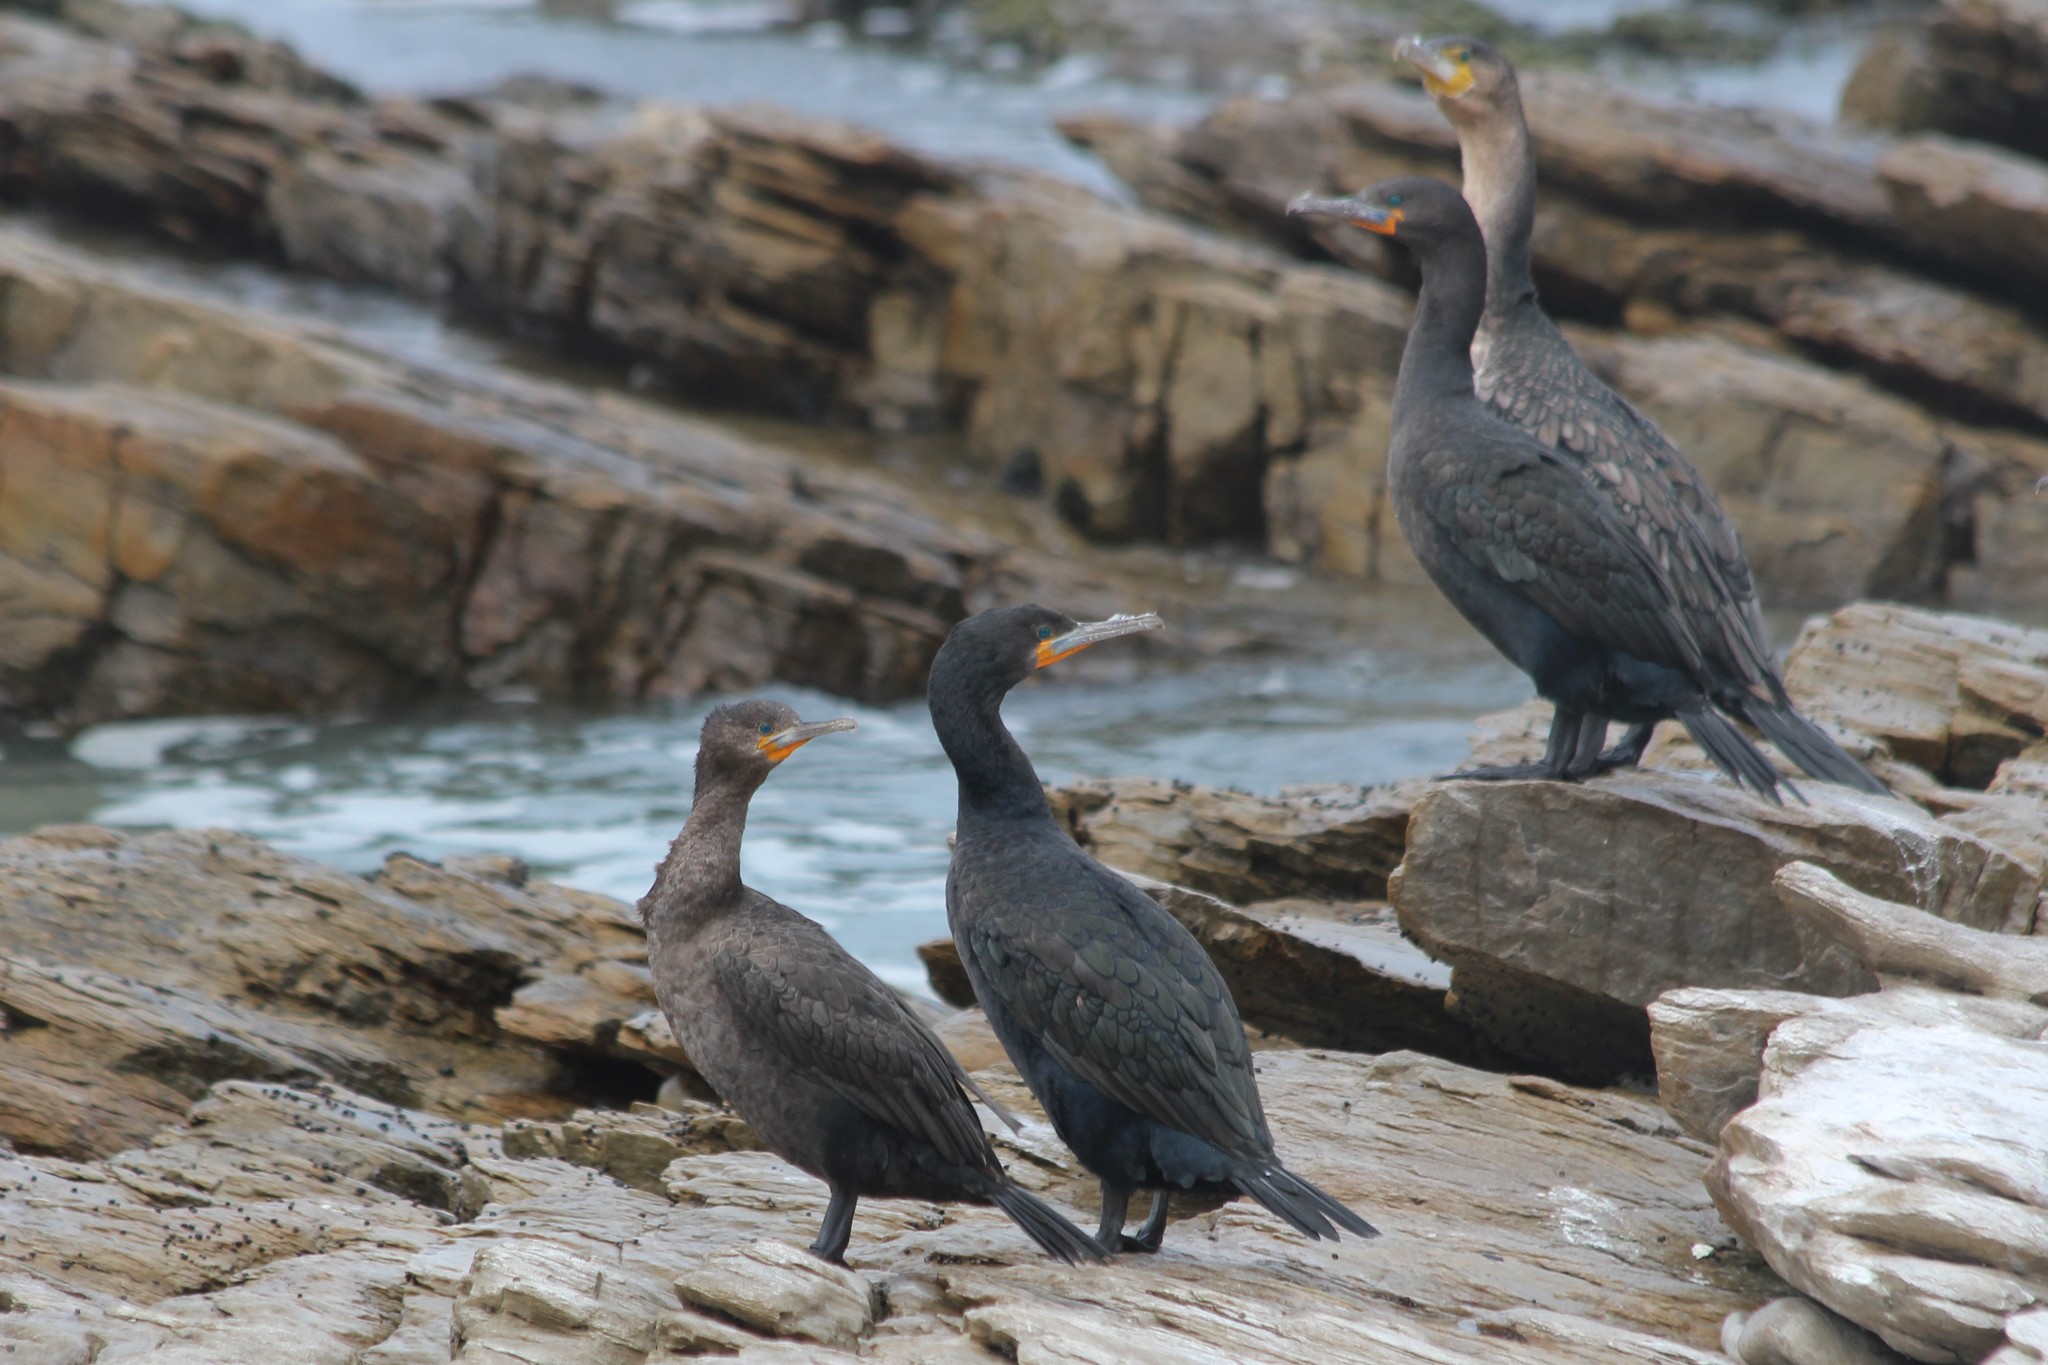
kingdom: Animalia
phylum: Chordata
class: Aves
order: Suliformes
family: Phalacrocoracidae
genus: Phalacrocorax
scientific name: Phalacrocorax capensis
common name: Cape cormorant
